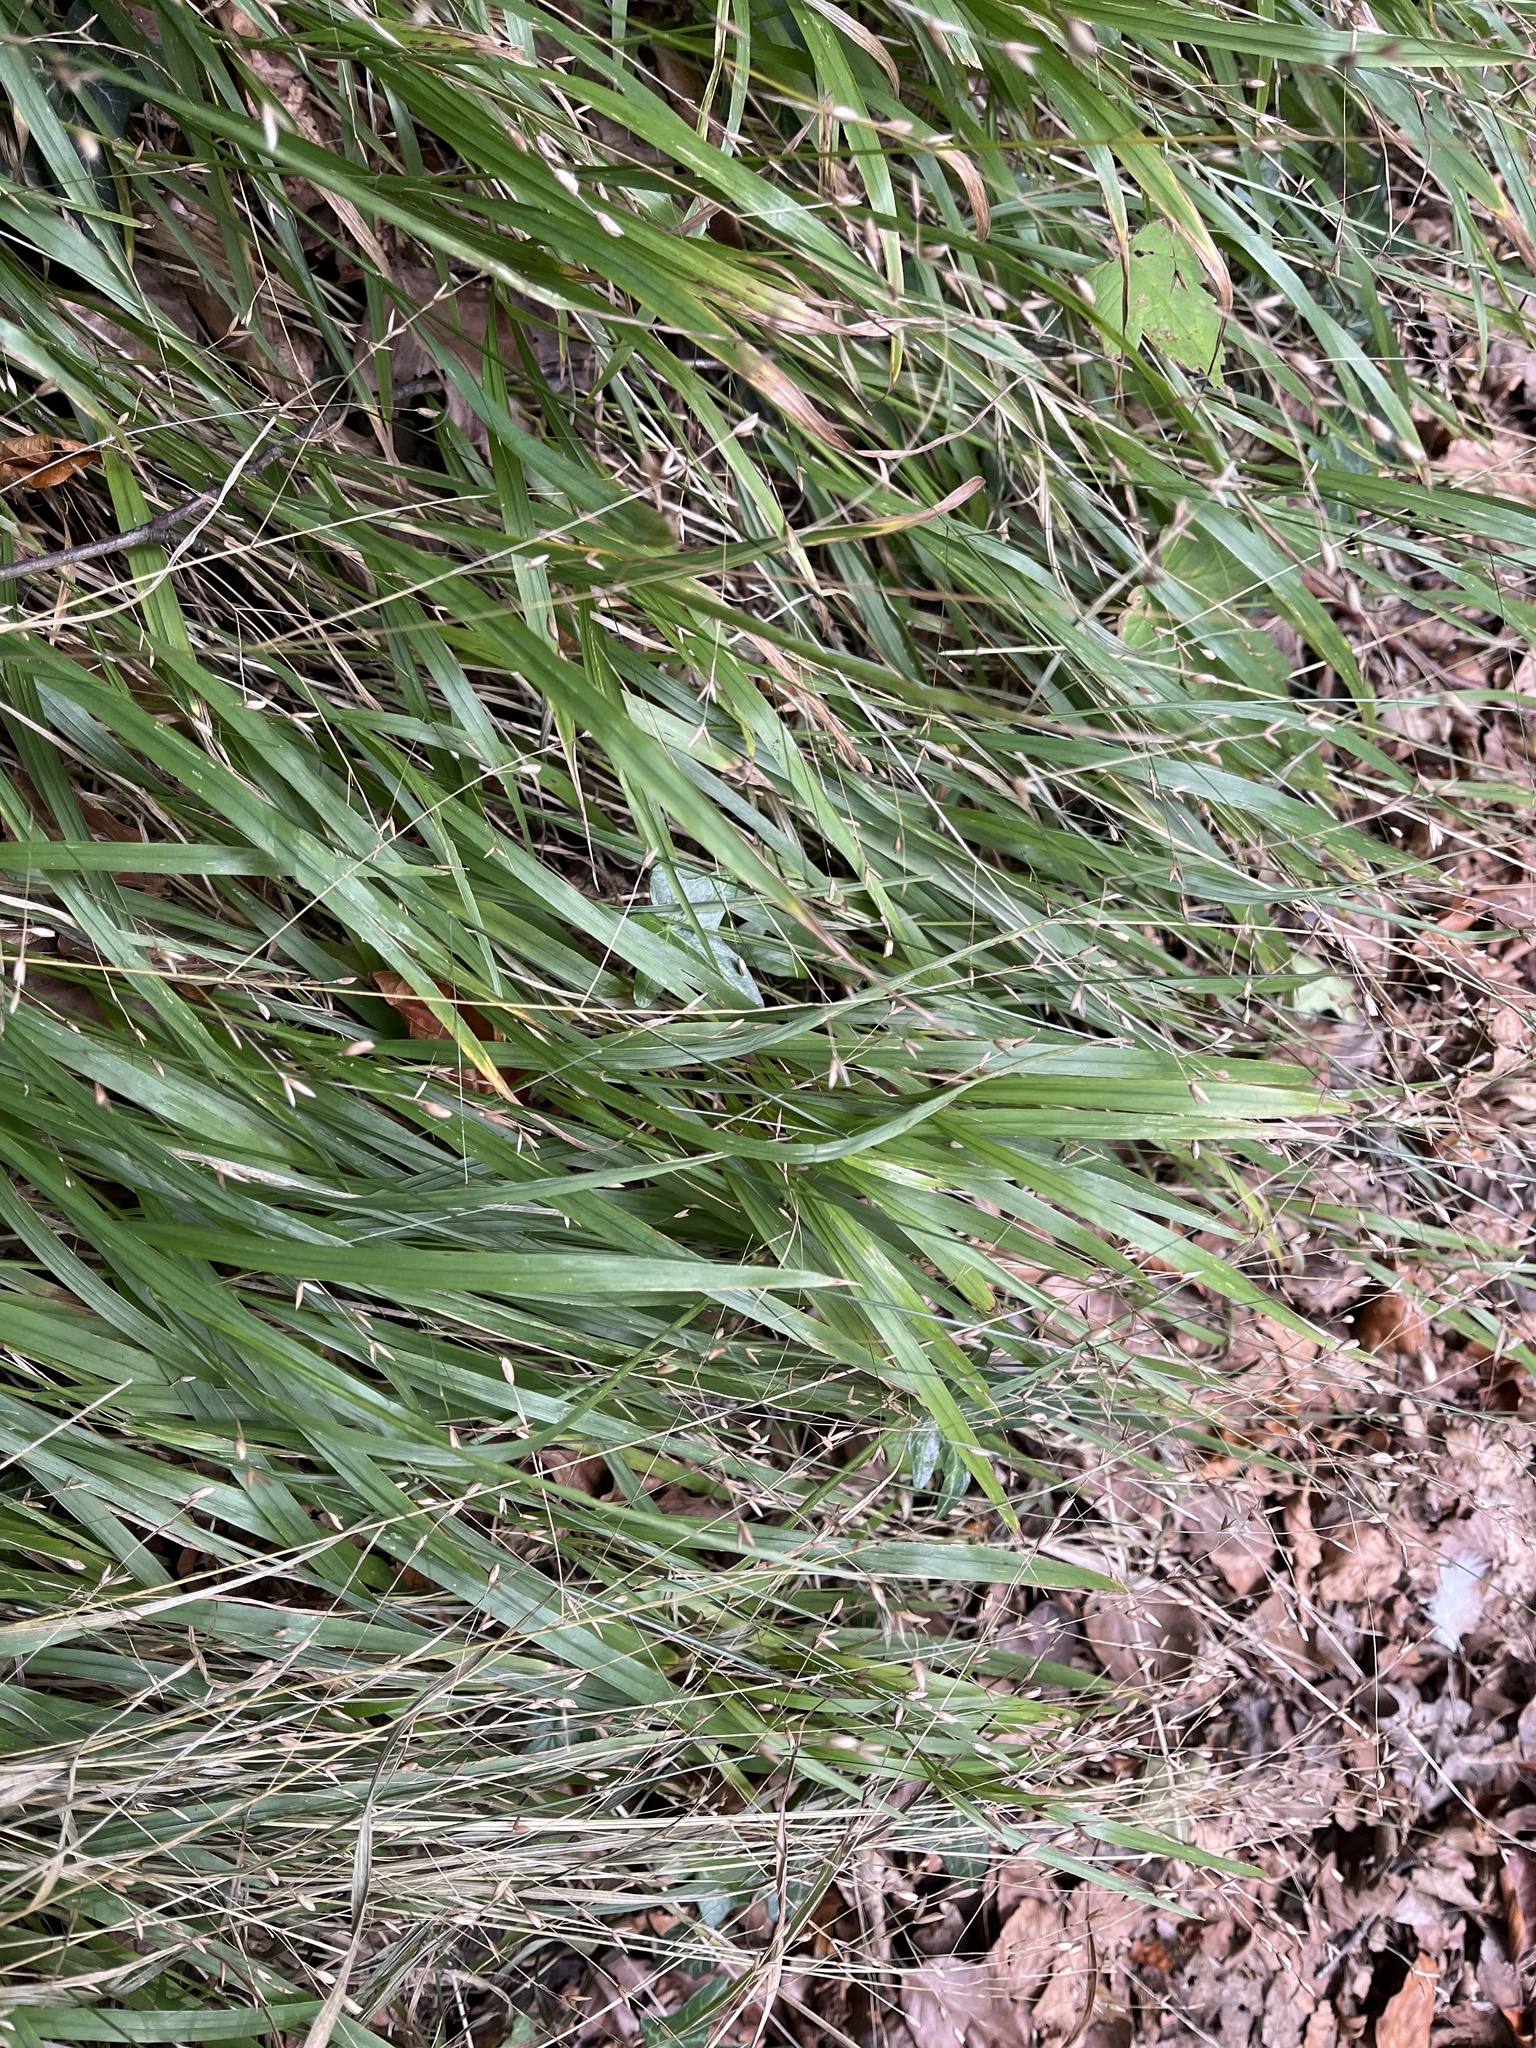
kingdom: Plantae
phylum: Tracheophyta
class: Liliopsida
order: Poales
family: Poaceae
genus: Melica
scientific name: Melica uniflora
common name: Wood melick
